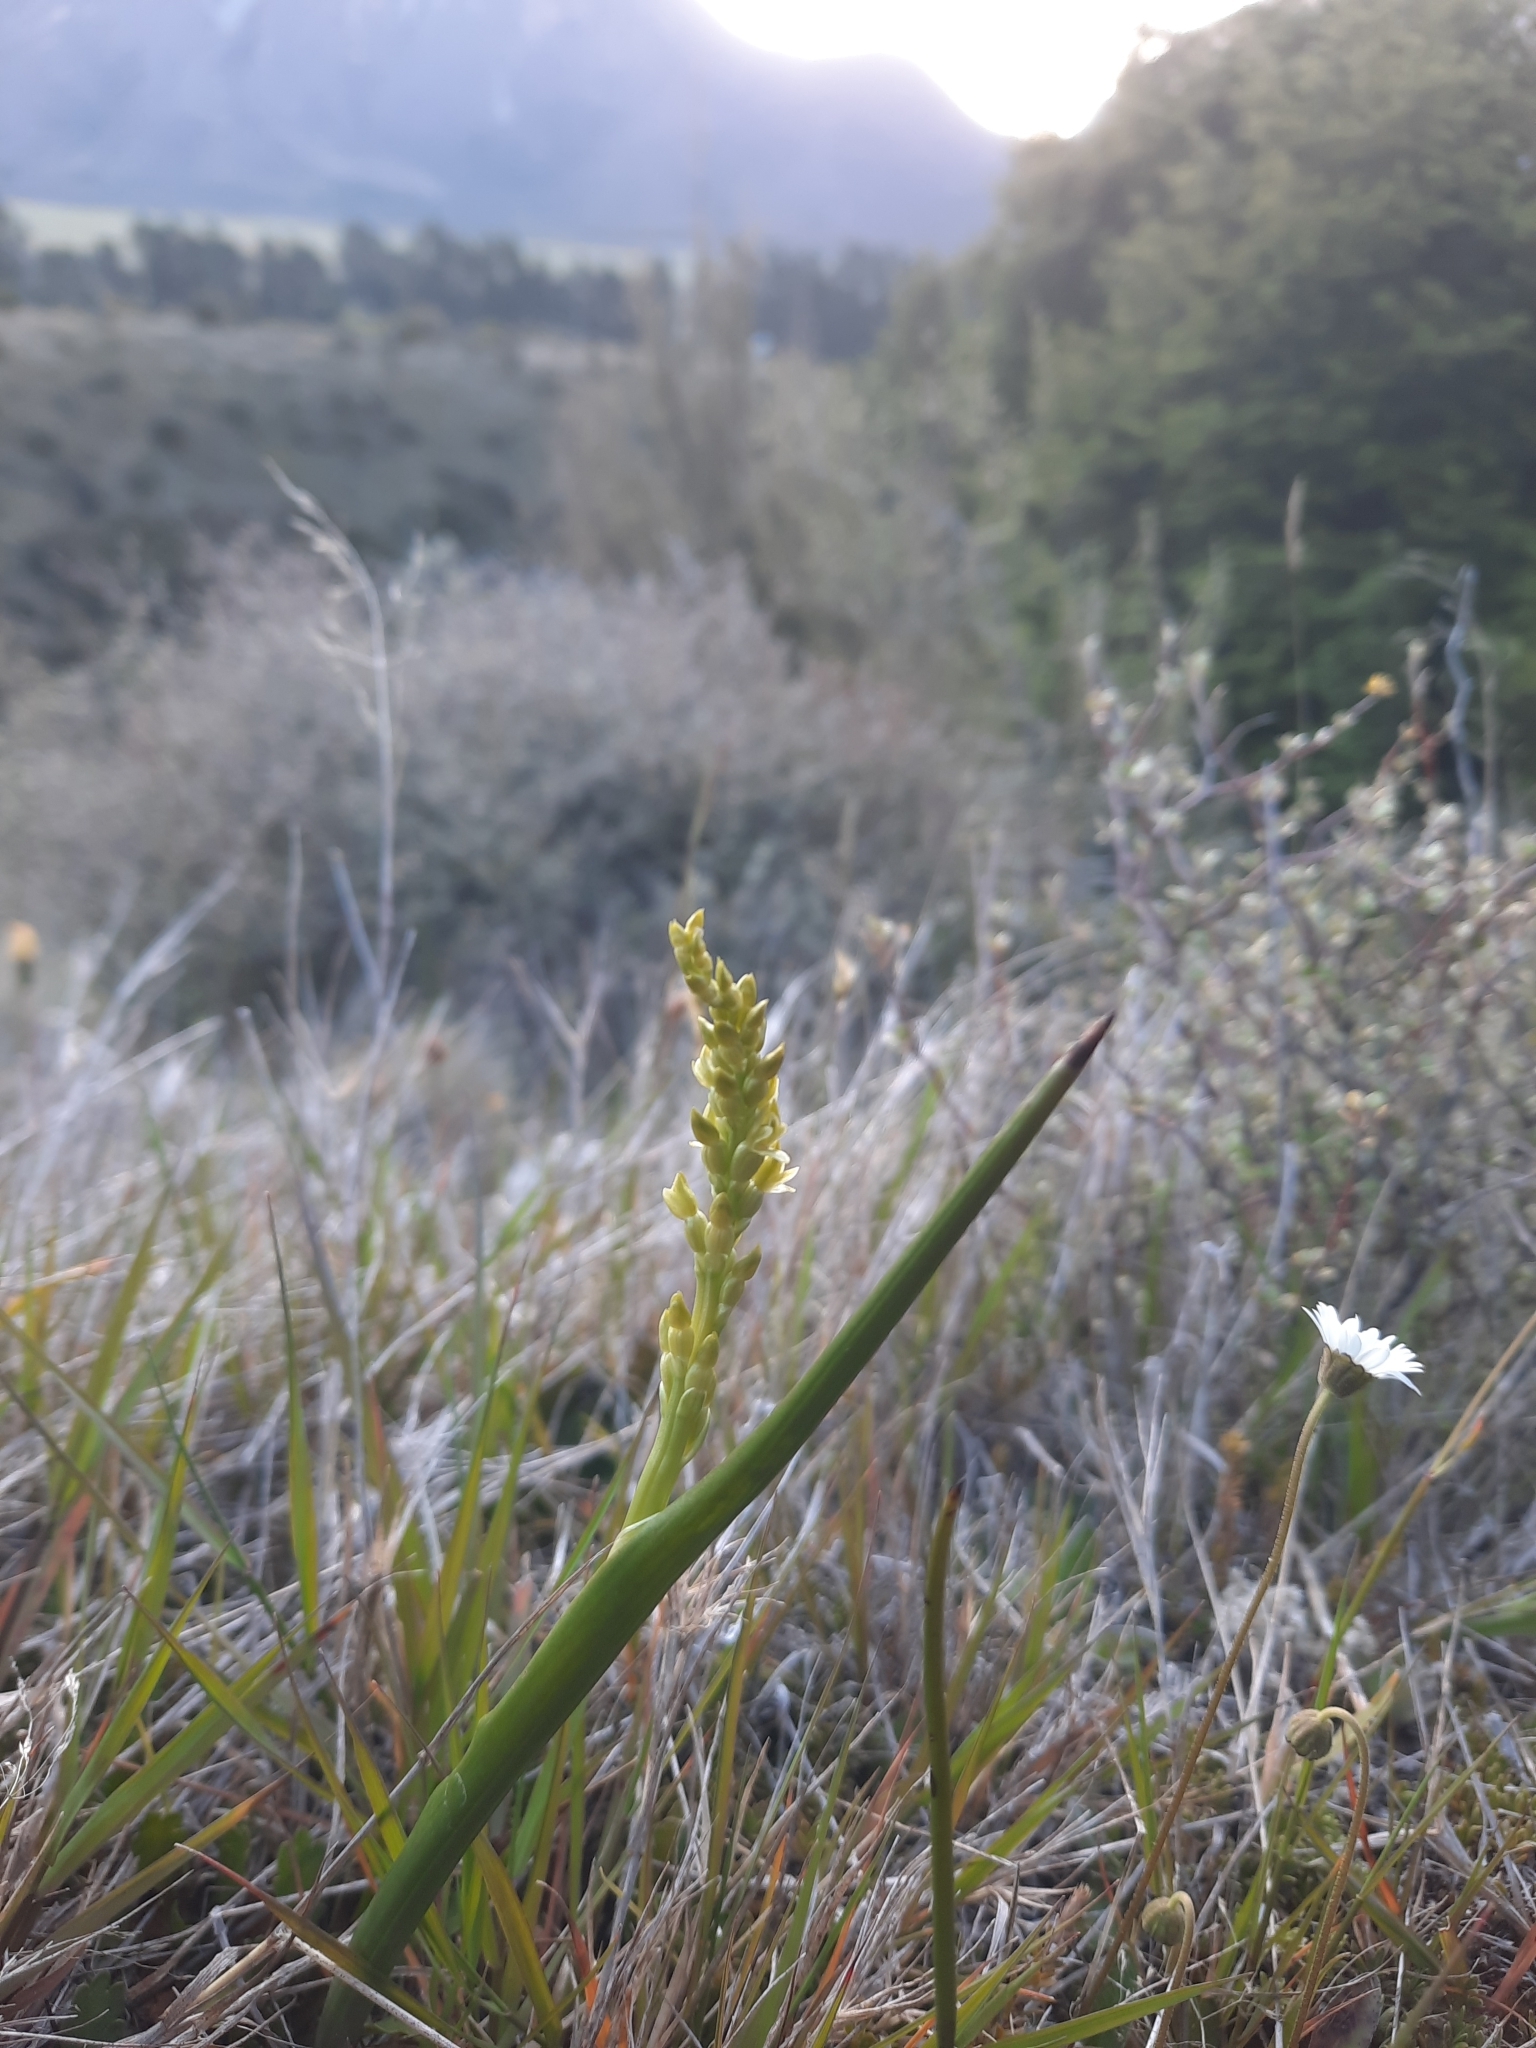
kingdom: Plantae
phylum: Tracheophyta
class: Liliopsida
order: Asparagales
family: Orchidaceae
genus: Prasophyllum
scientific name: Prasophyllum colensoi
